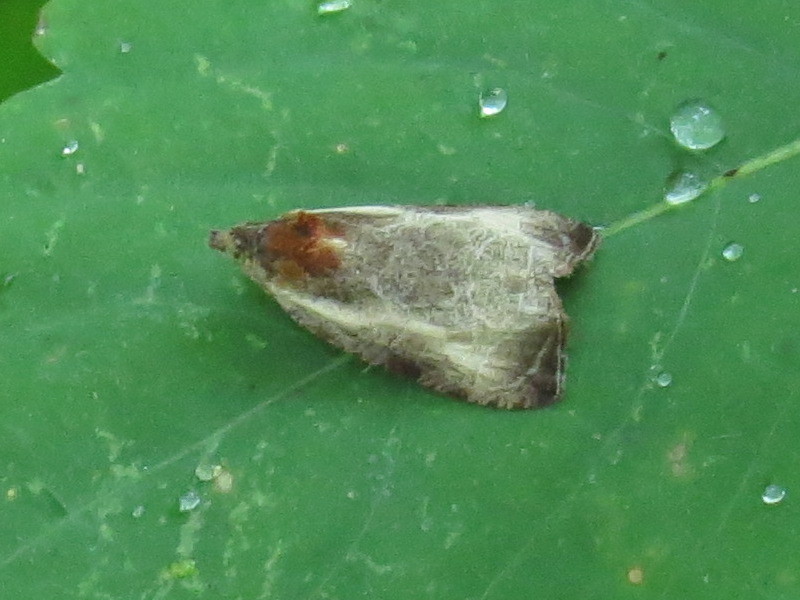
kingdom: Animalia
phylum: Arthropoda
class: Insecta
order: Lepidoptera
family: Tortricidae
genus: Olethreutes
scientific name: Olethreutes inornatana
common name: Inornate olethreutes moth
